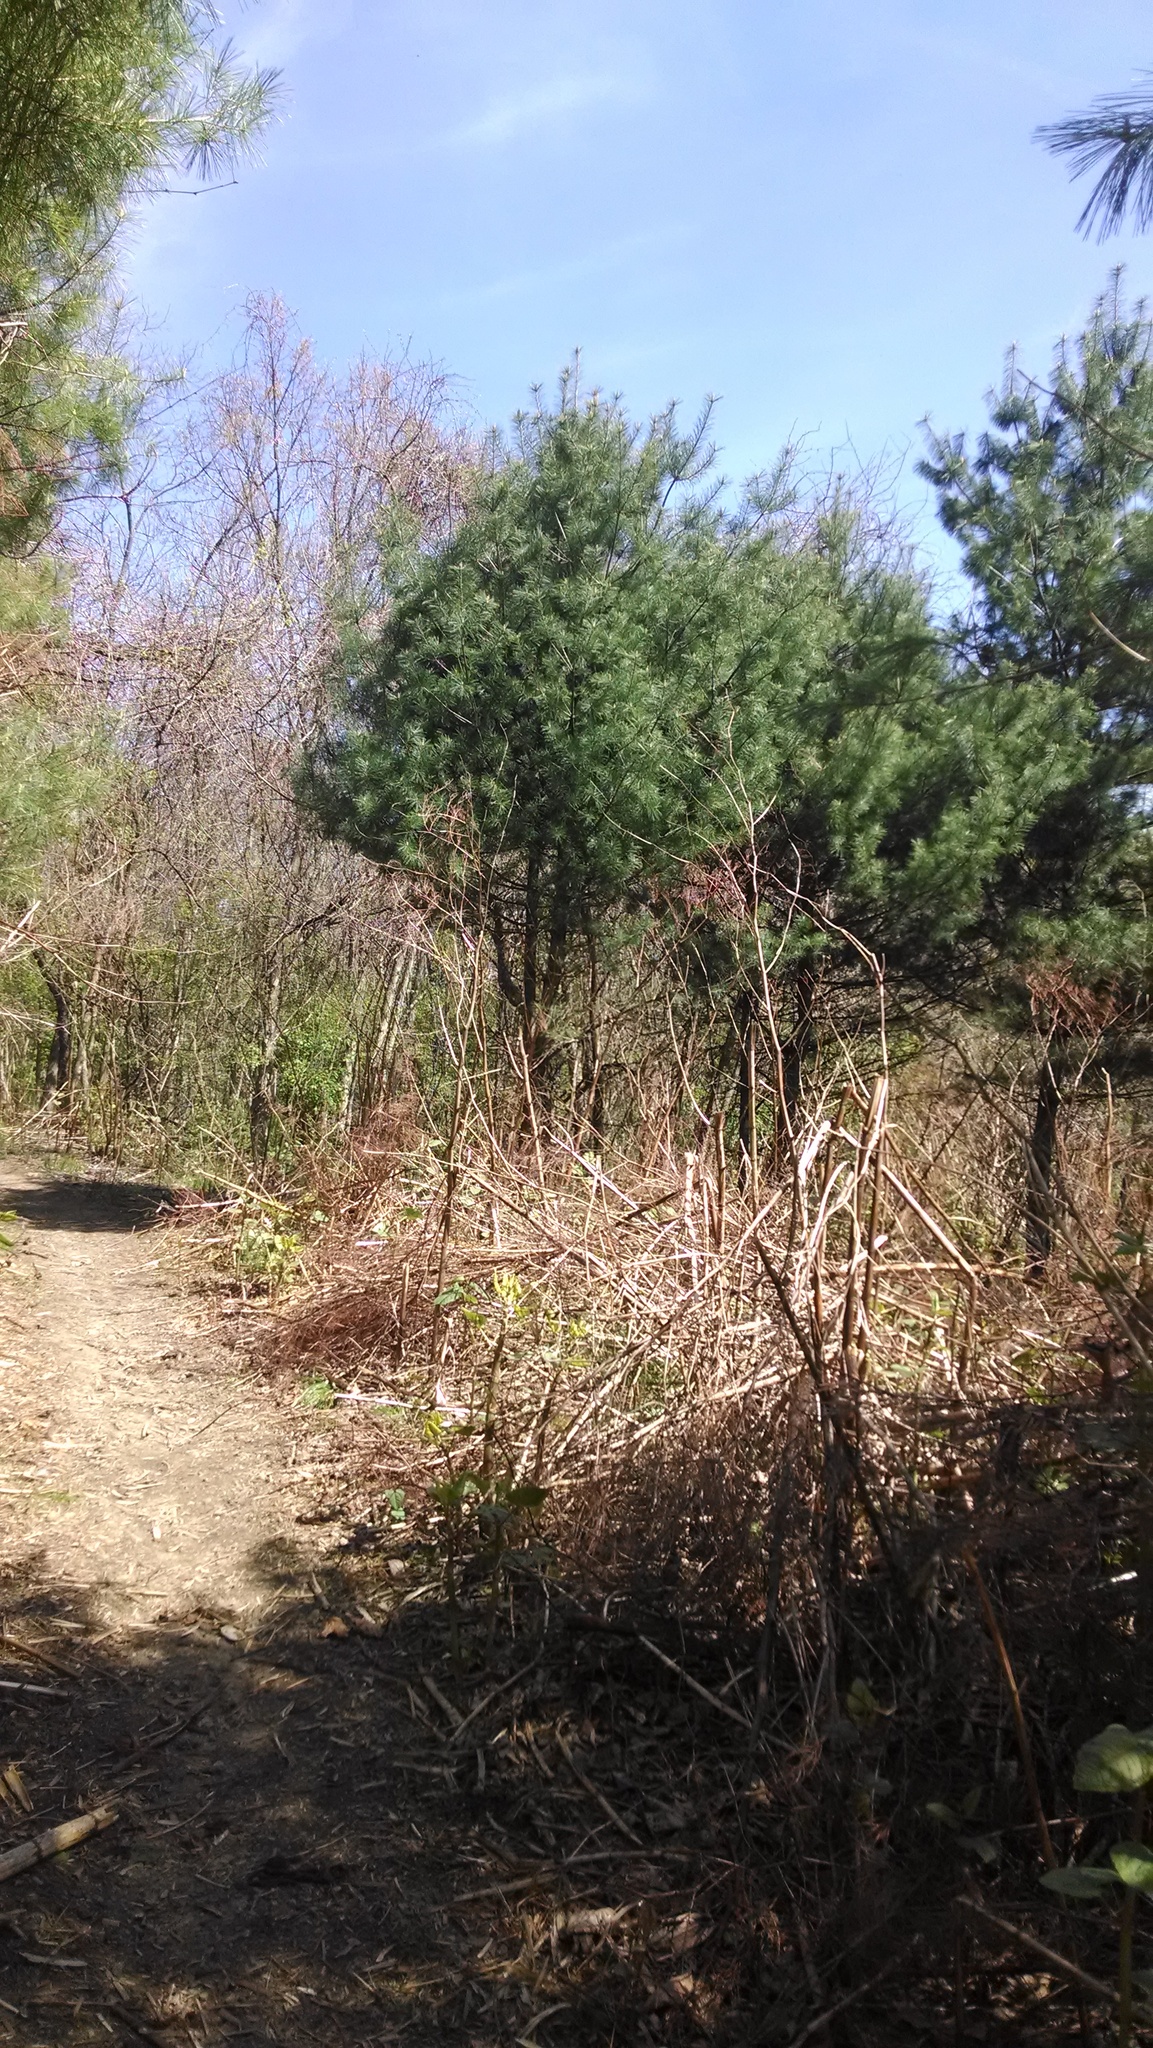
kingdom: Plantae
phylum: Tracheophyta
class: Magnoliopsida
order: Caryophyllales
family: Polygonaceae
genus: Reynoutria
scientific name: Reynoutria japonica
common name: Japanese knotweed
